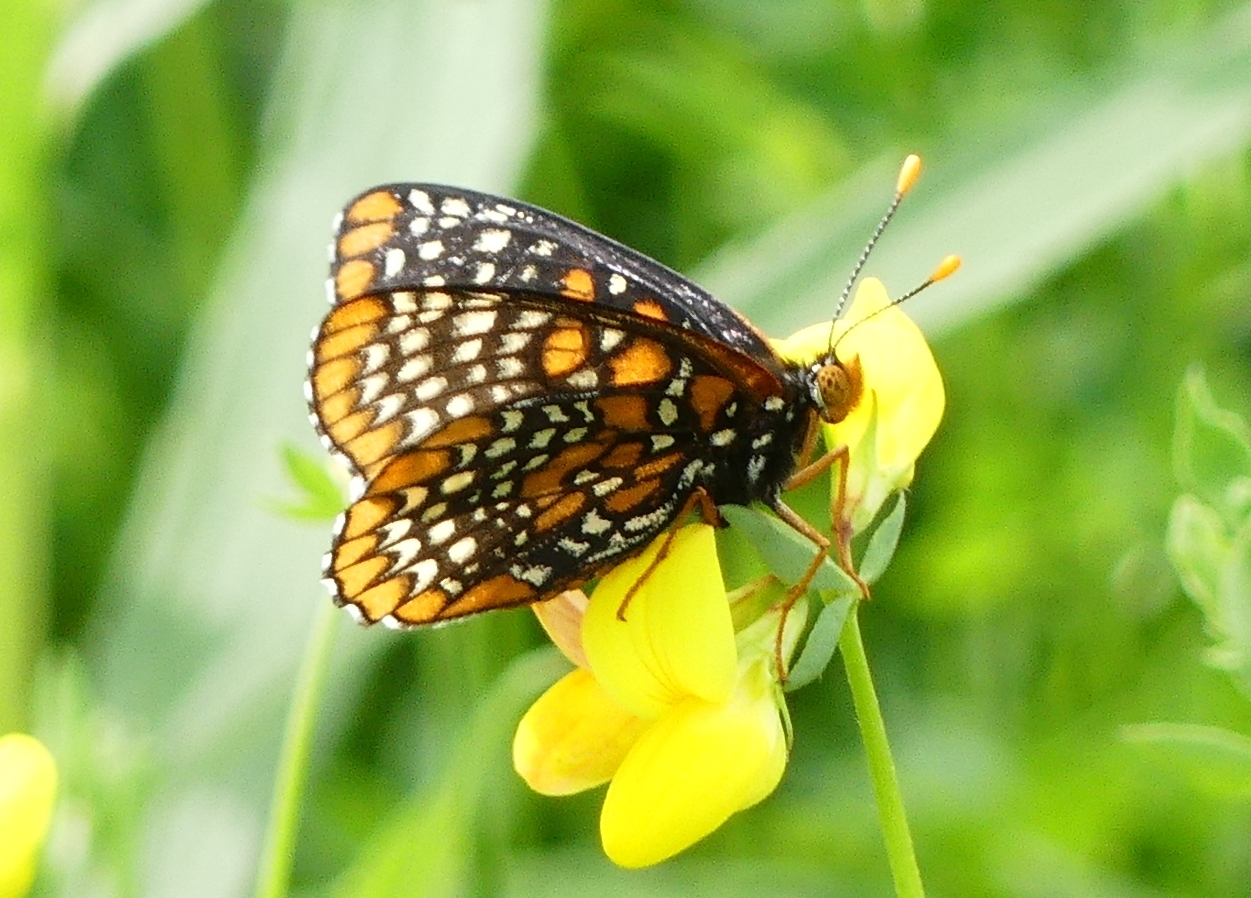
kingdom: Animalia
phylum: Arthropoda
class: Insecta
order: Lepidoptera
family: Nymphalidae
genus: Euphydryas
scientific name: Euphydryas phaeton
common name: Baltimore checkerspot
